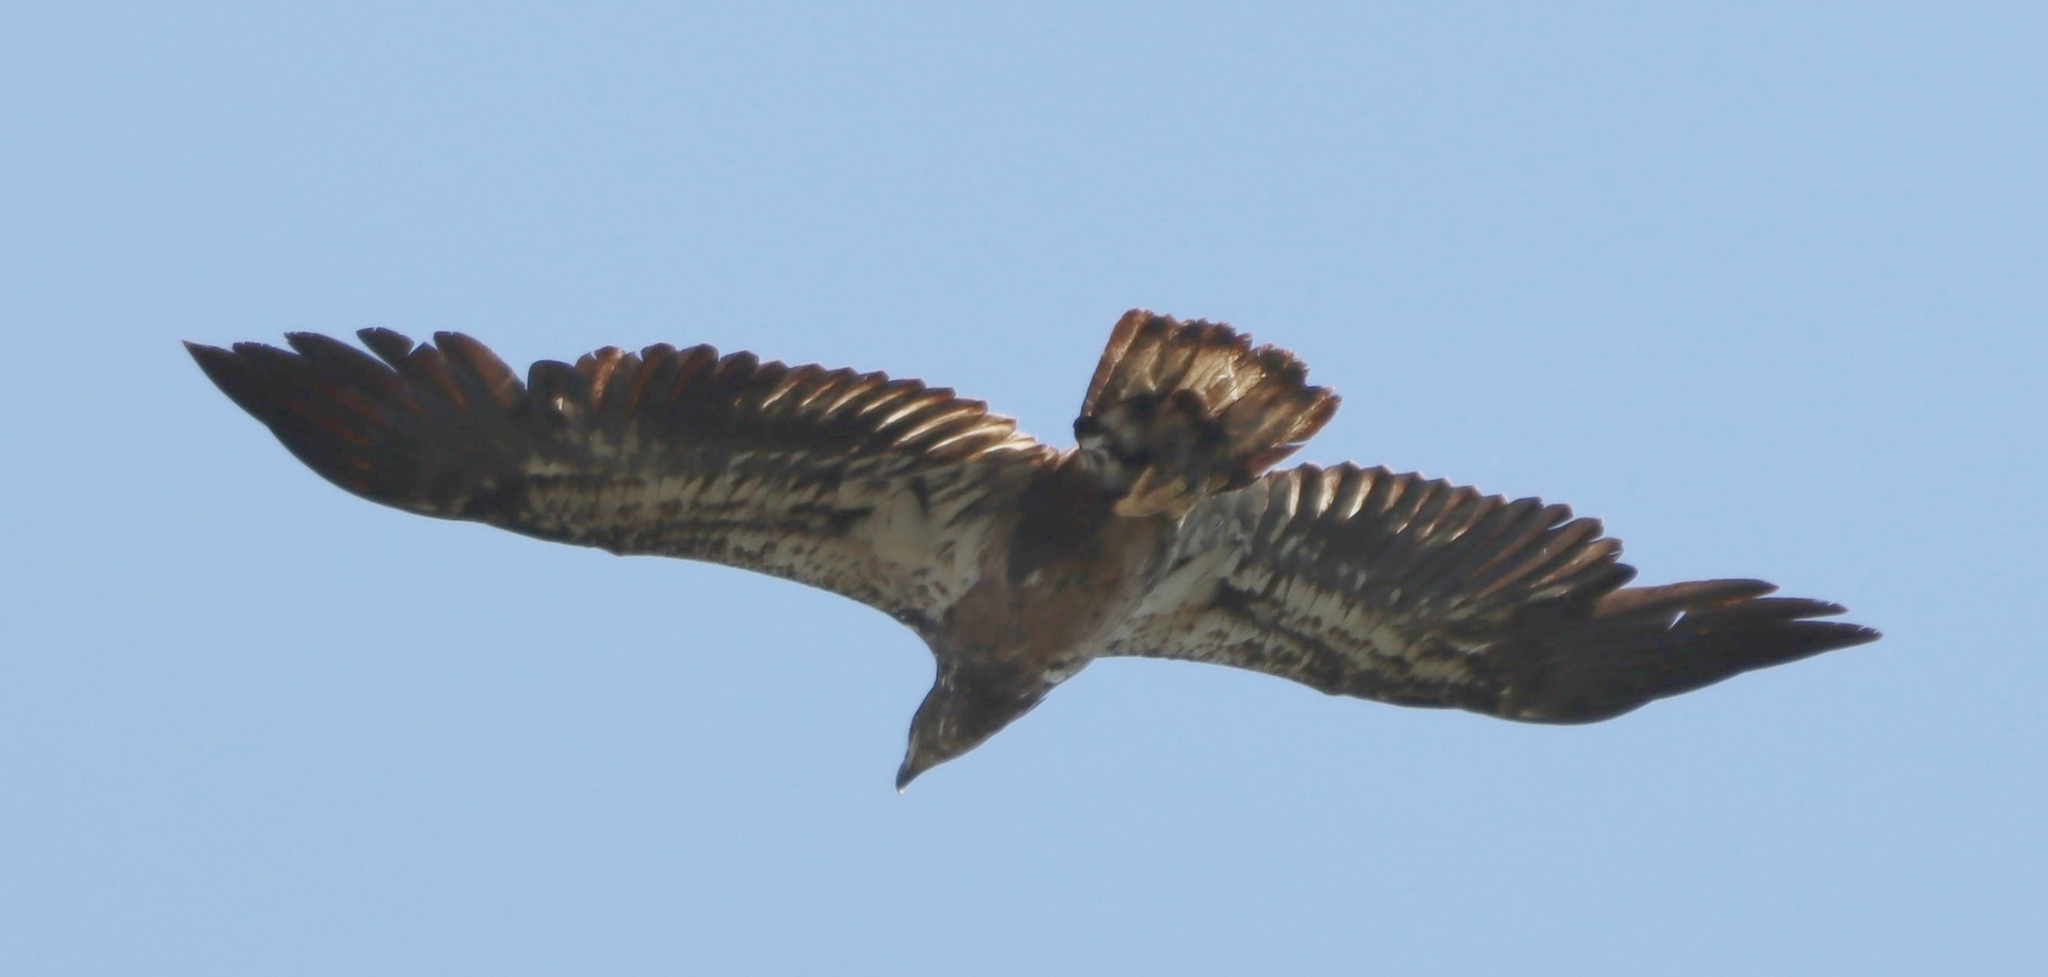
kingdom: Animalia
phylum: Chordata
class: Aves
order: Accipitriformes
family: Accipitridae
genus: Haliaeetus
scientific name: Haliaeetus leucocephalus
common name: Bald eagle
